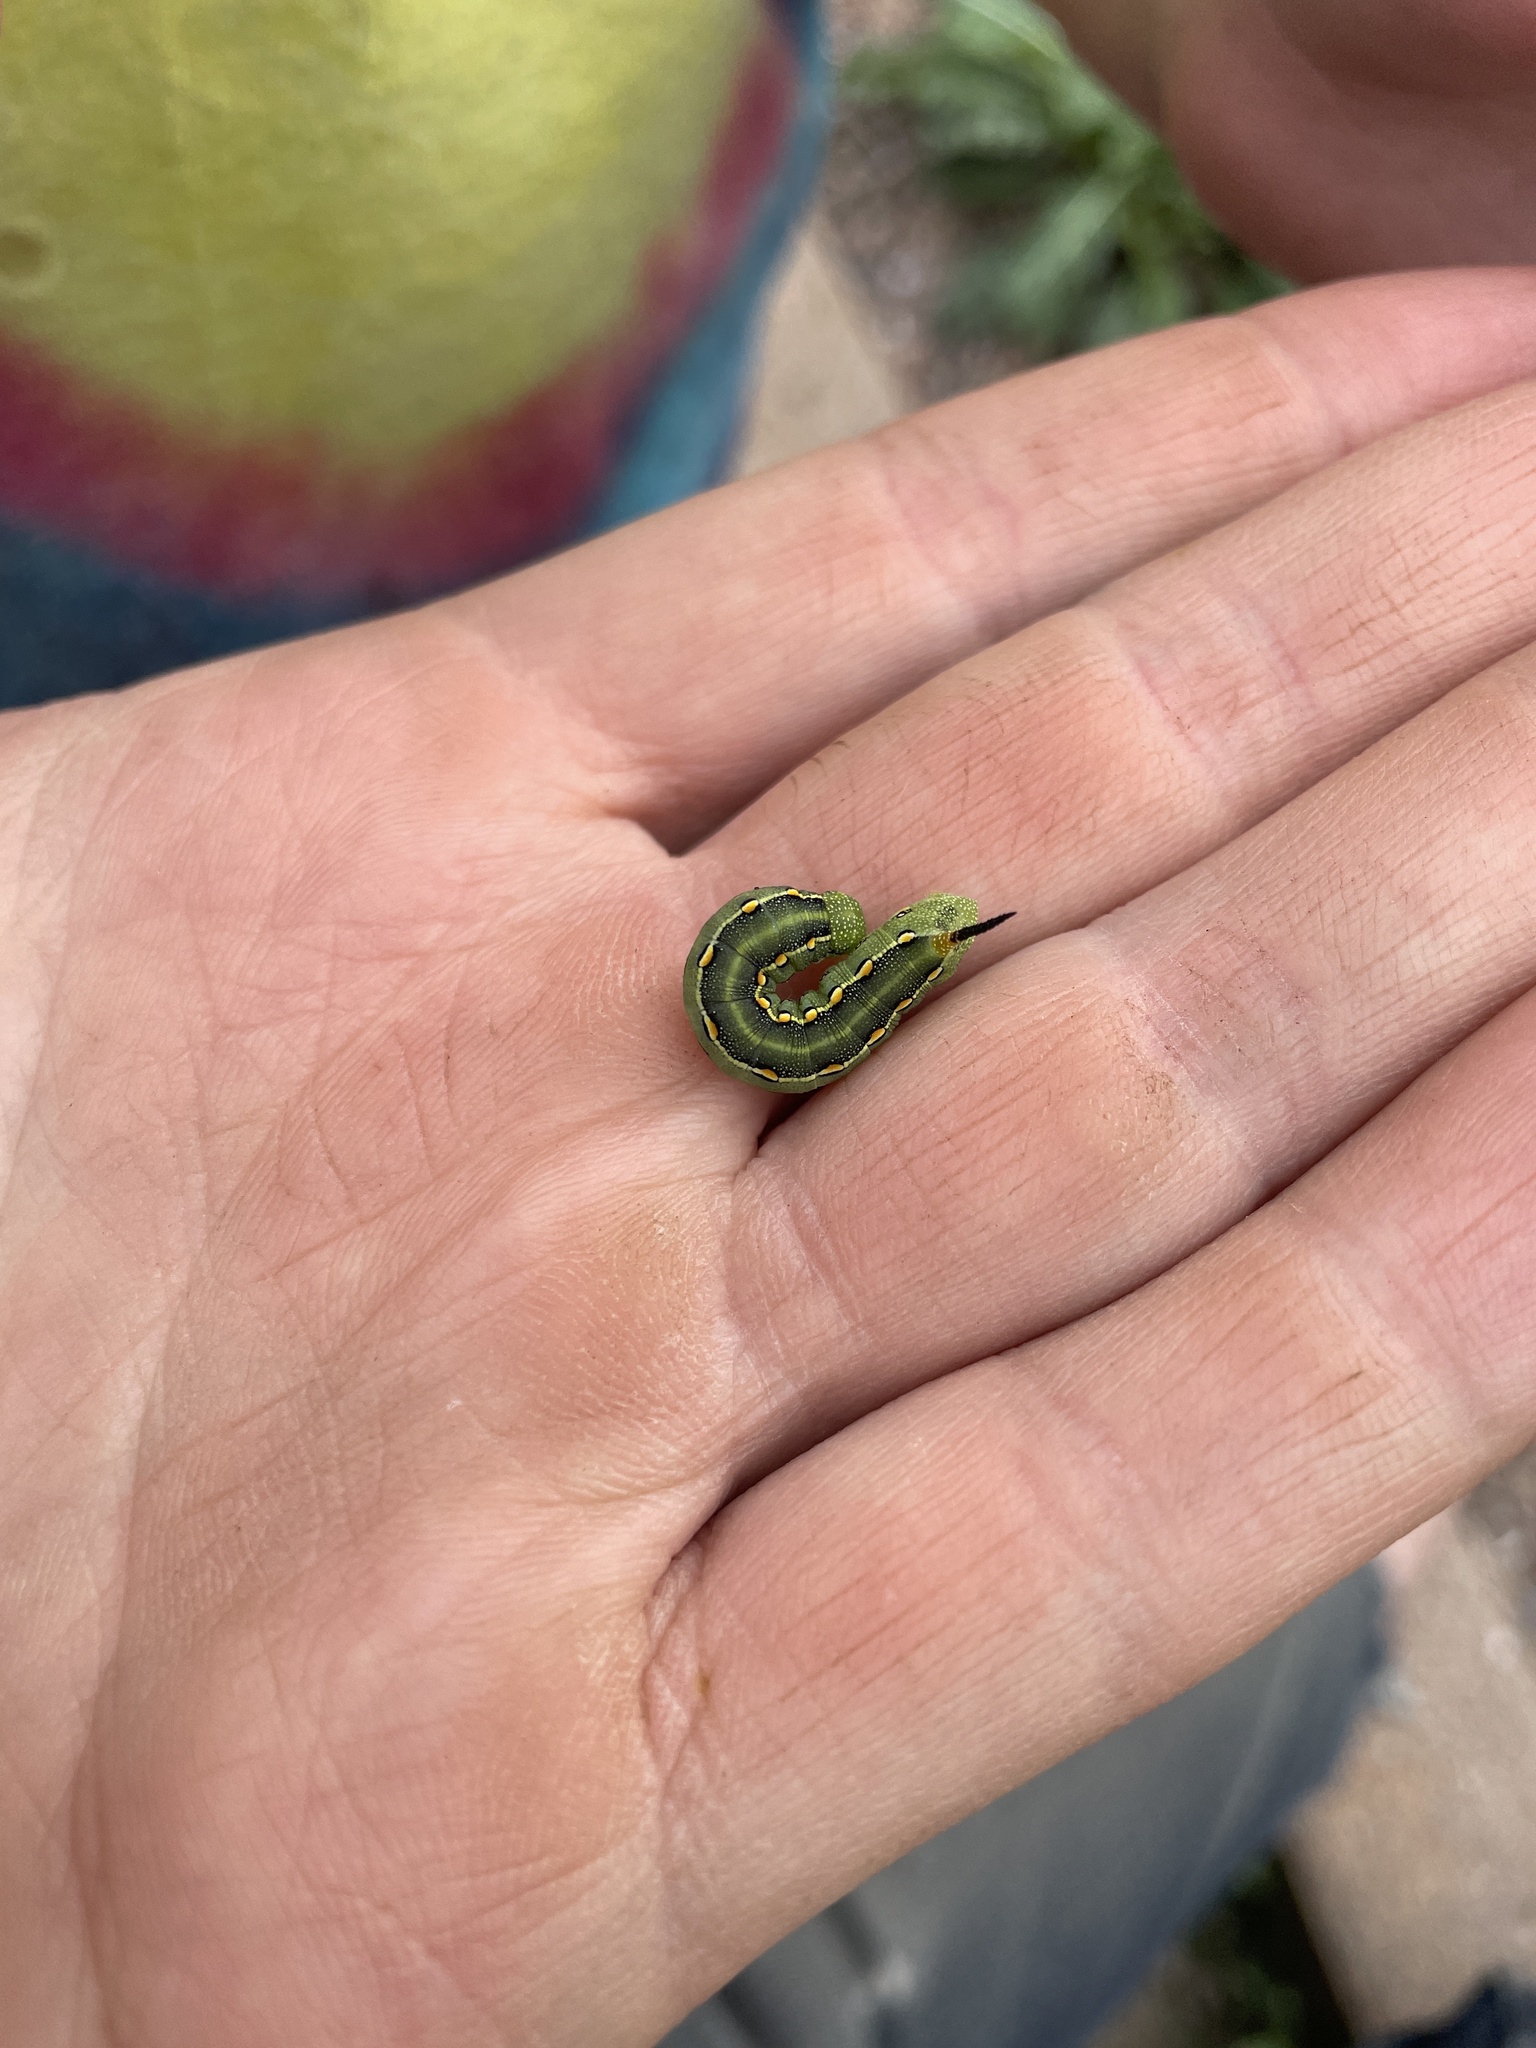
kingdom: Animalia
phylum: Arthropoda
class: Insecta
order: Lepidoptera
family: Sphingidae
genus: Hyles
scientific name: Hyles lineata
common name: White-lined sphinx
